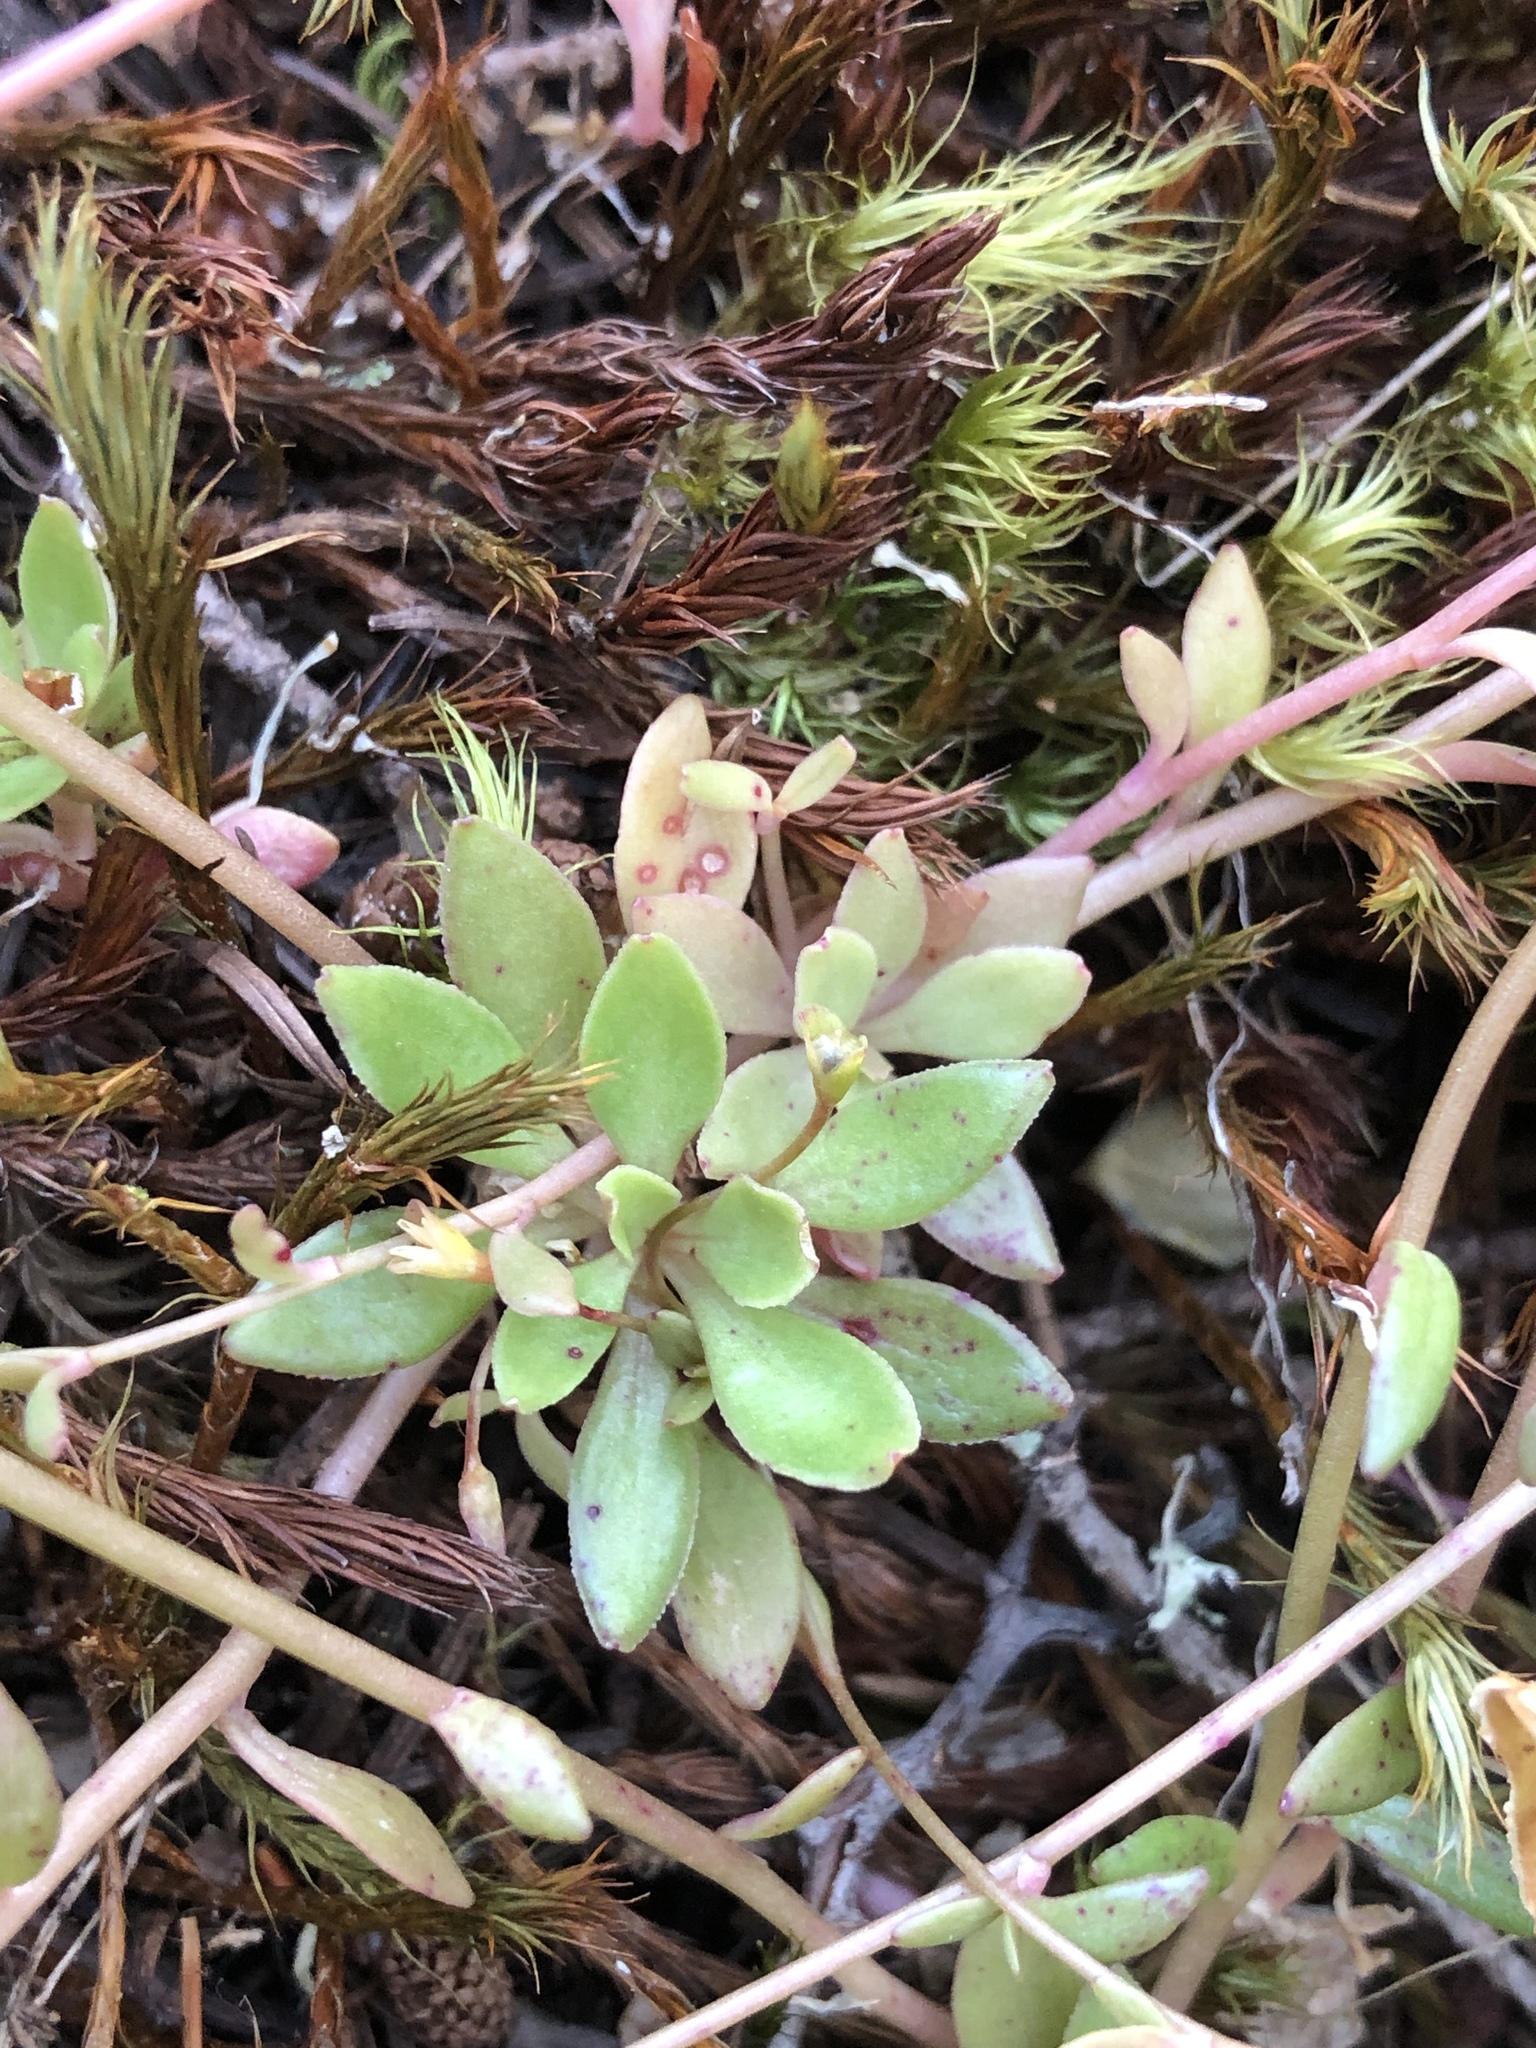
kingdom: Plantae
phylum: Tracheophyta
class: Magnoliopsida
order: Caryophyllales
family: Montiaceae
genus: Montia
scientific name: Montia parvifolia
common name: Small-leaved blinks
